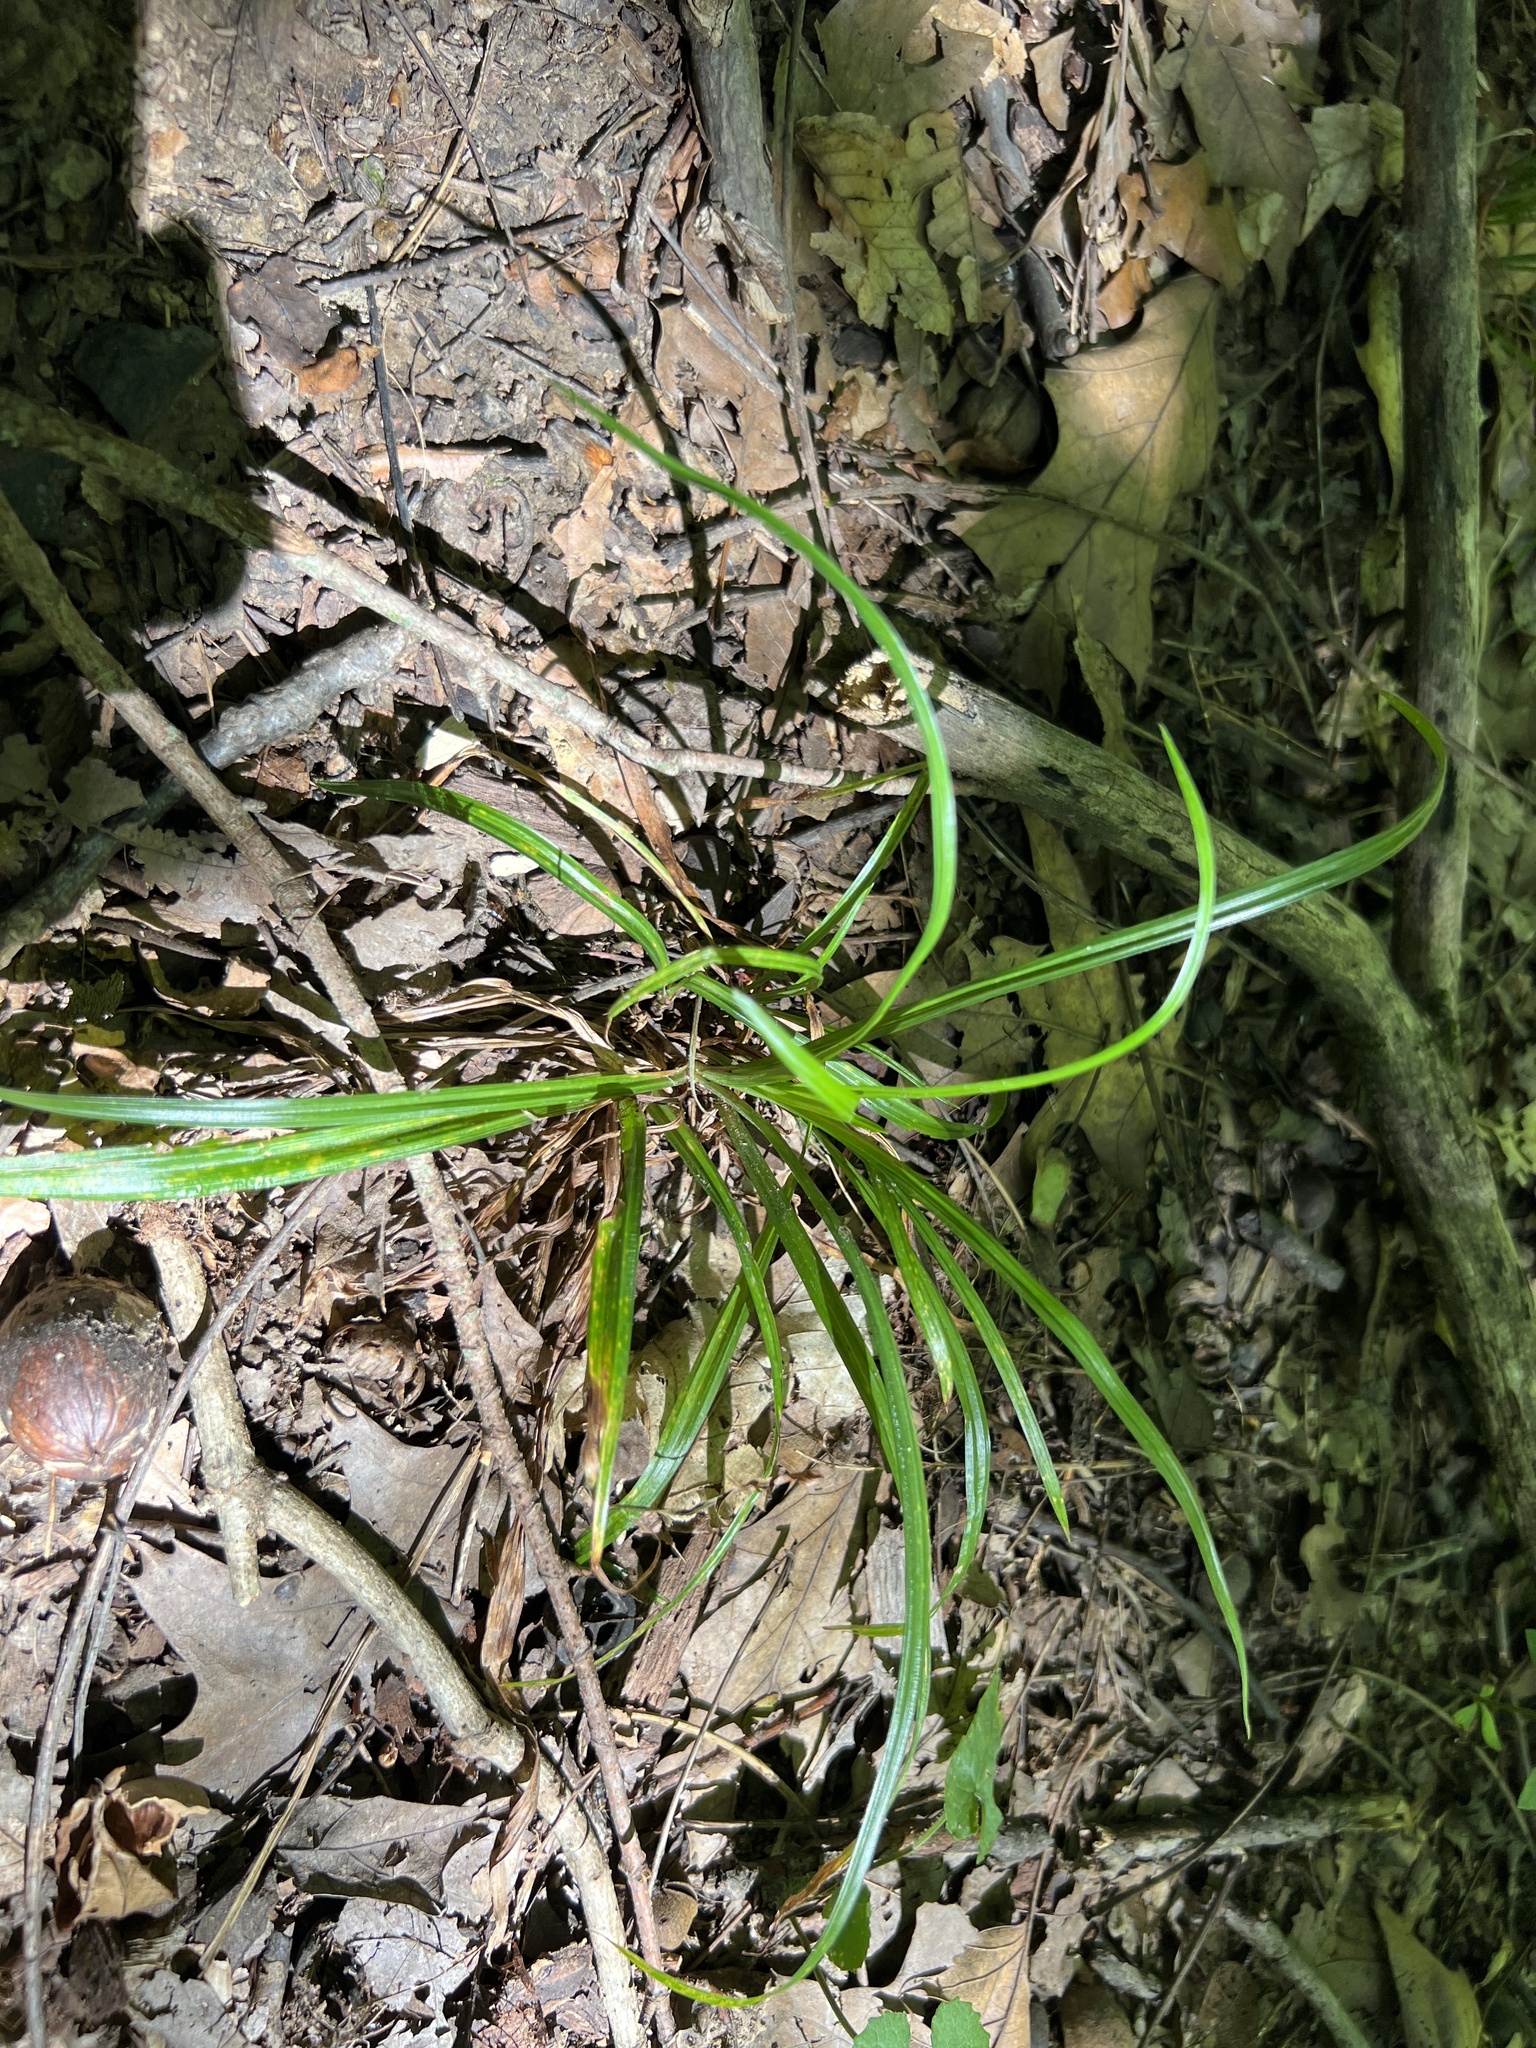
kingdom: Plantae
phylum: Tracheophyta
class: Liliopsida
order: Poales
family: Cyperaceae
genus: Carex
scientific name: Carex
